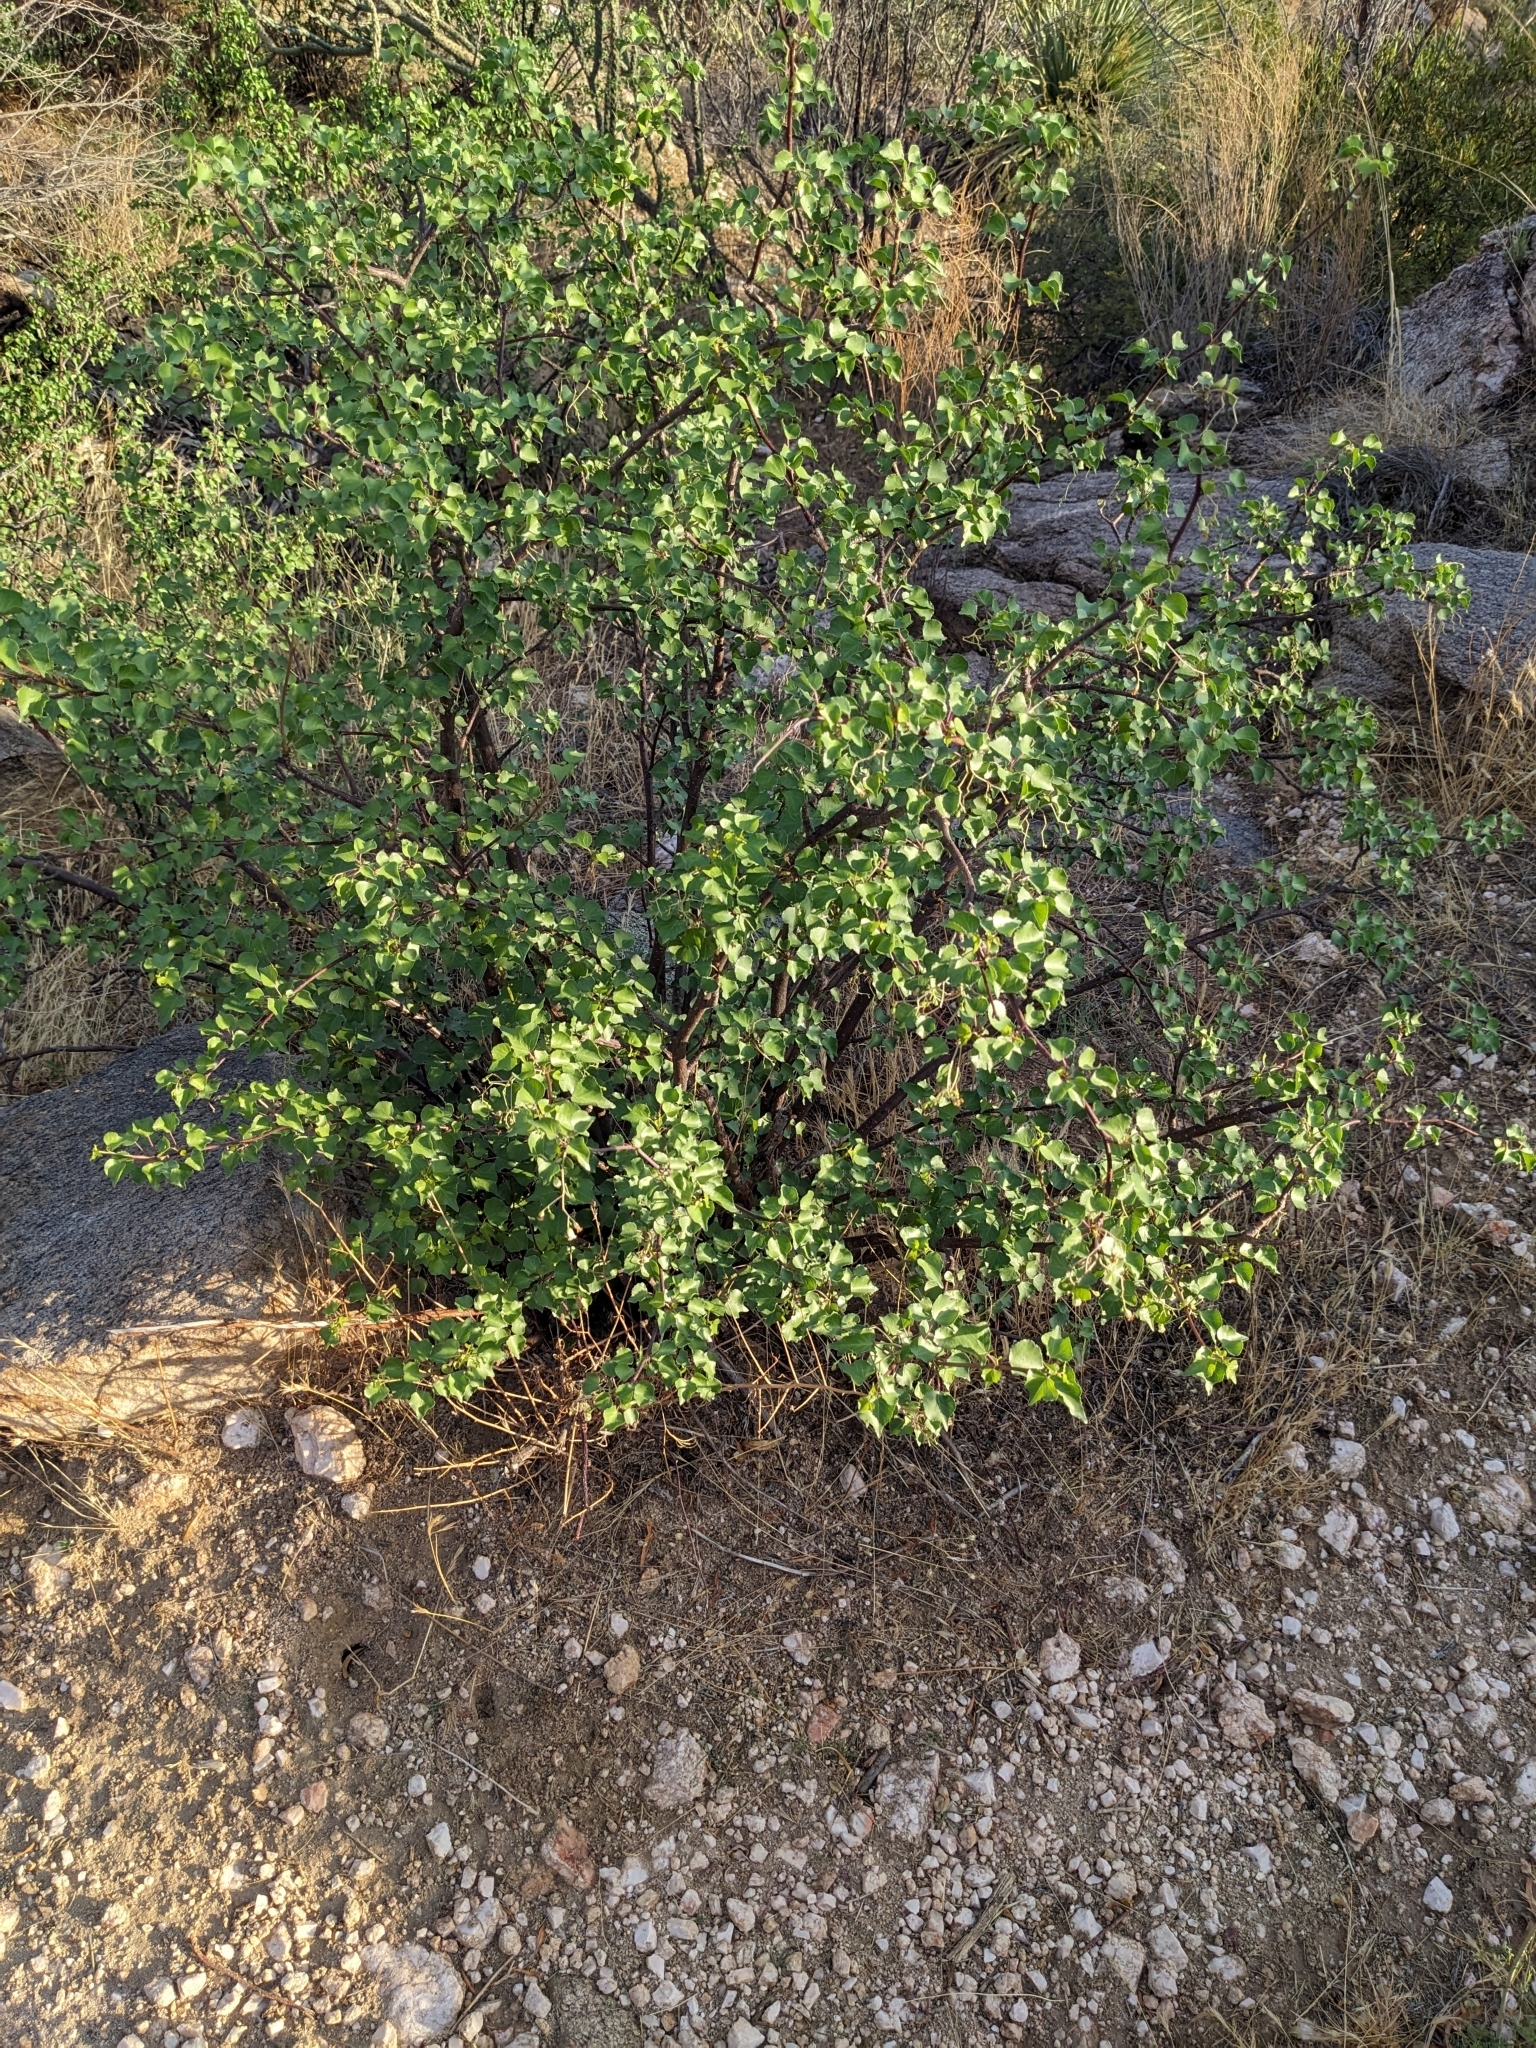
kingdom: Plantae
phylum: Tracheophyta
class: Magnoliopsida
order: Malpighiales
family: Euphorbiaceae
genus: Jatropha
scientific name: Jatropha cardiophylla
